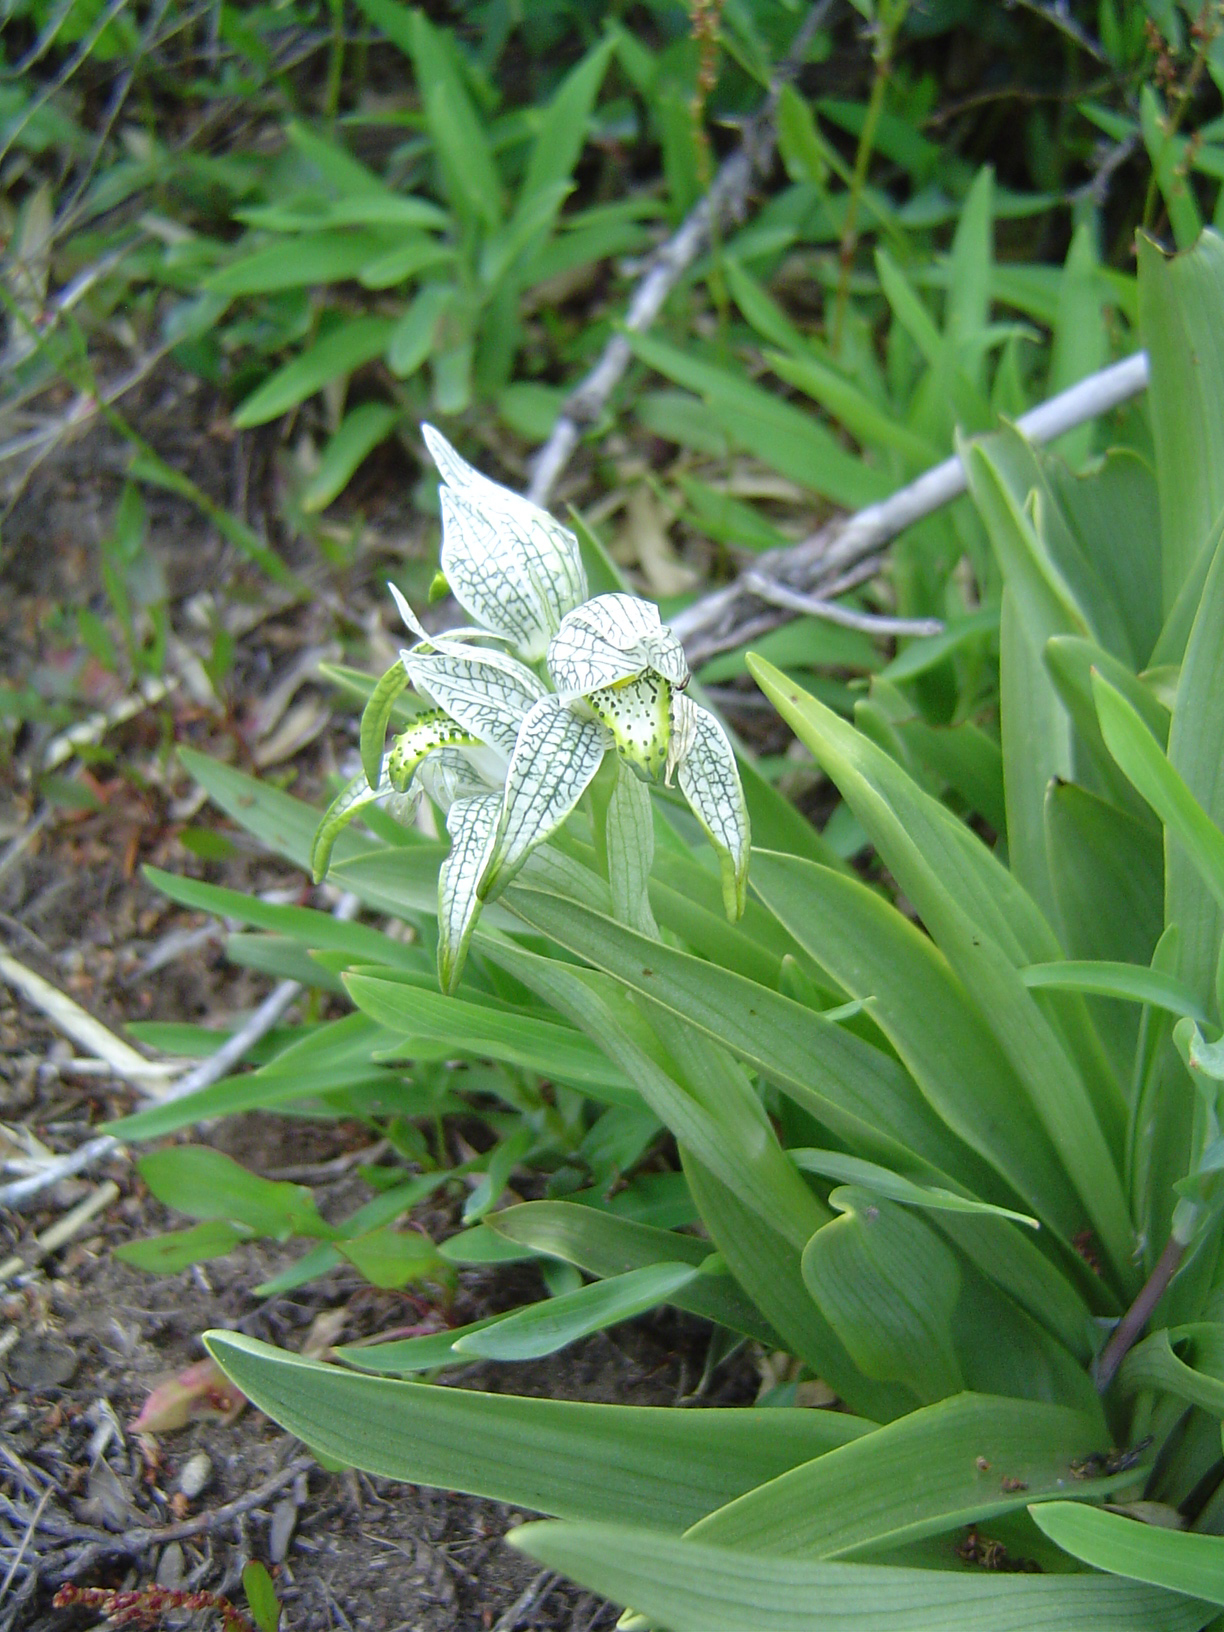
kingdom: Plantae
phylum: Tracheophyta
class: Liliopsida
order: Asparagales
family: Orchidaceae
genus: Chloraea
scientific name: Chloraea magellanica
